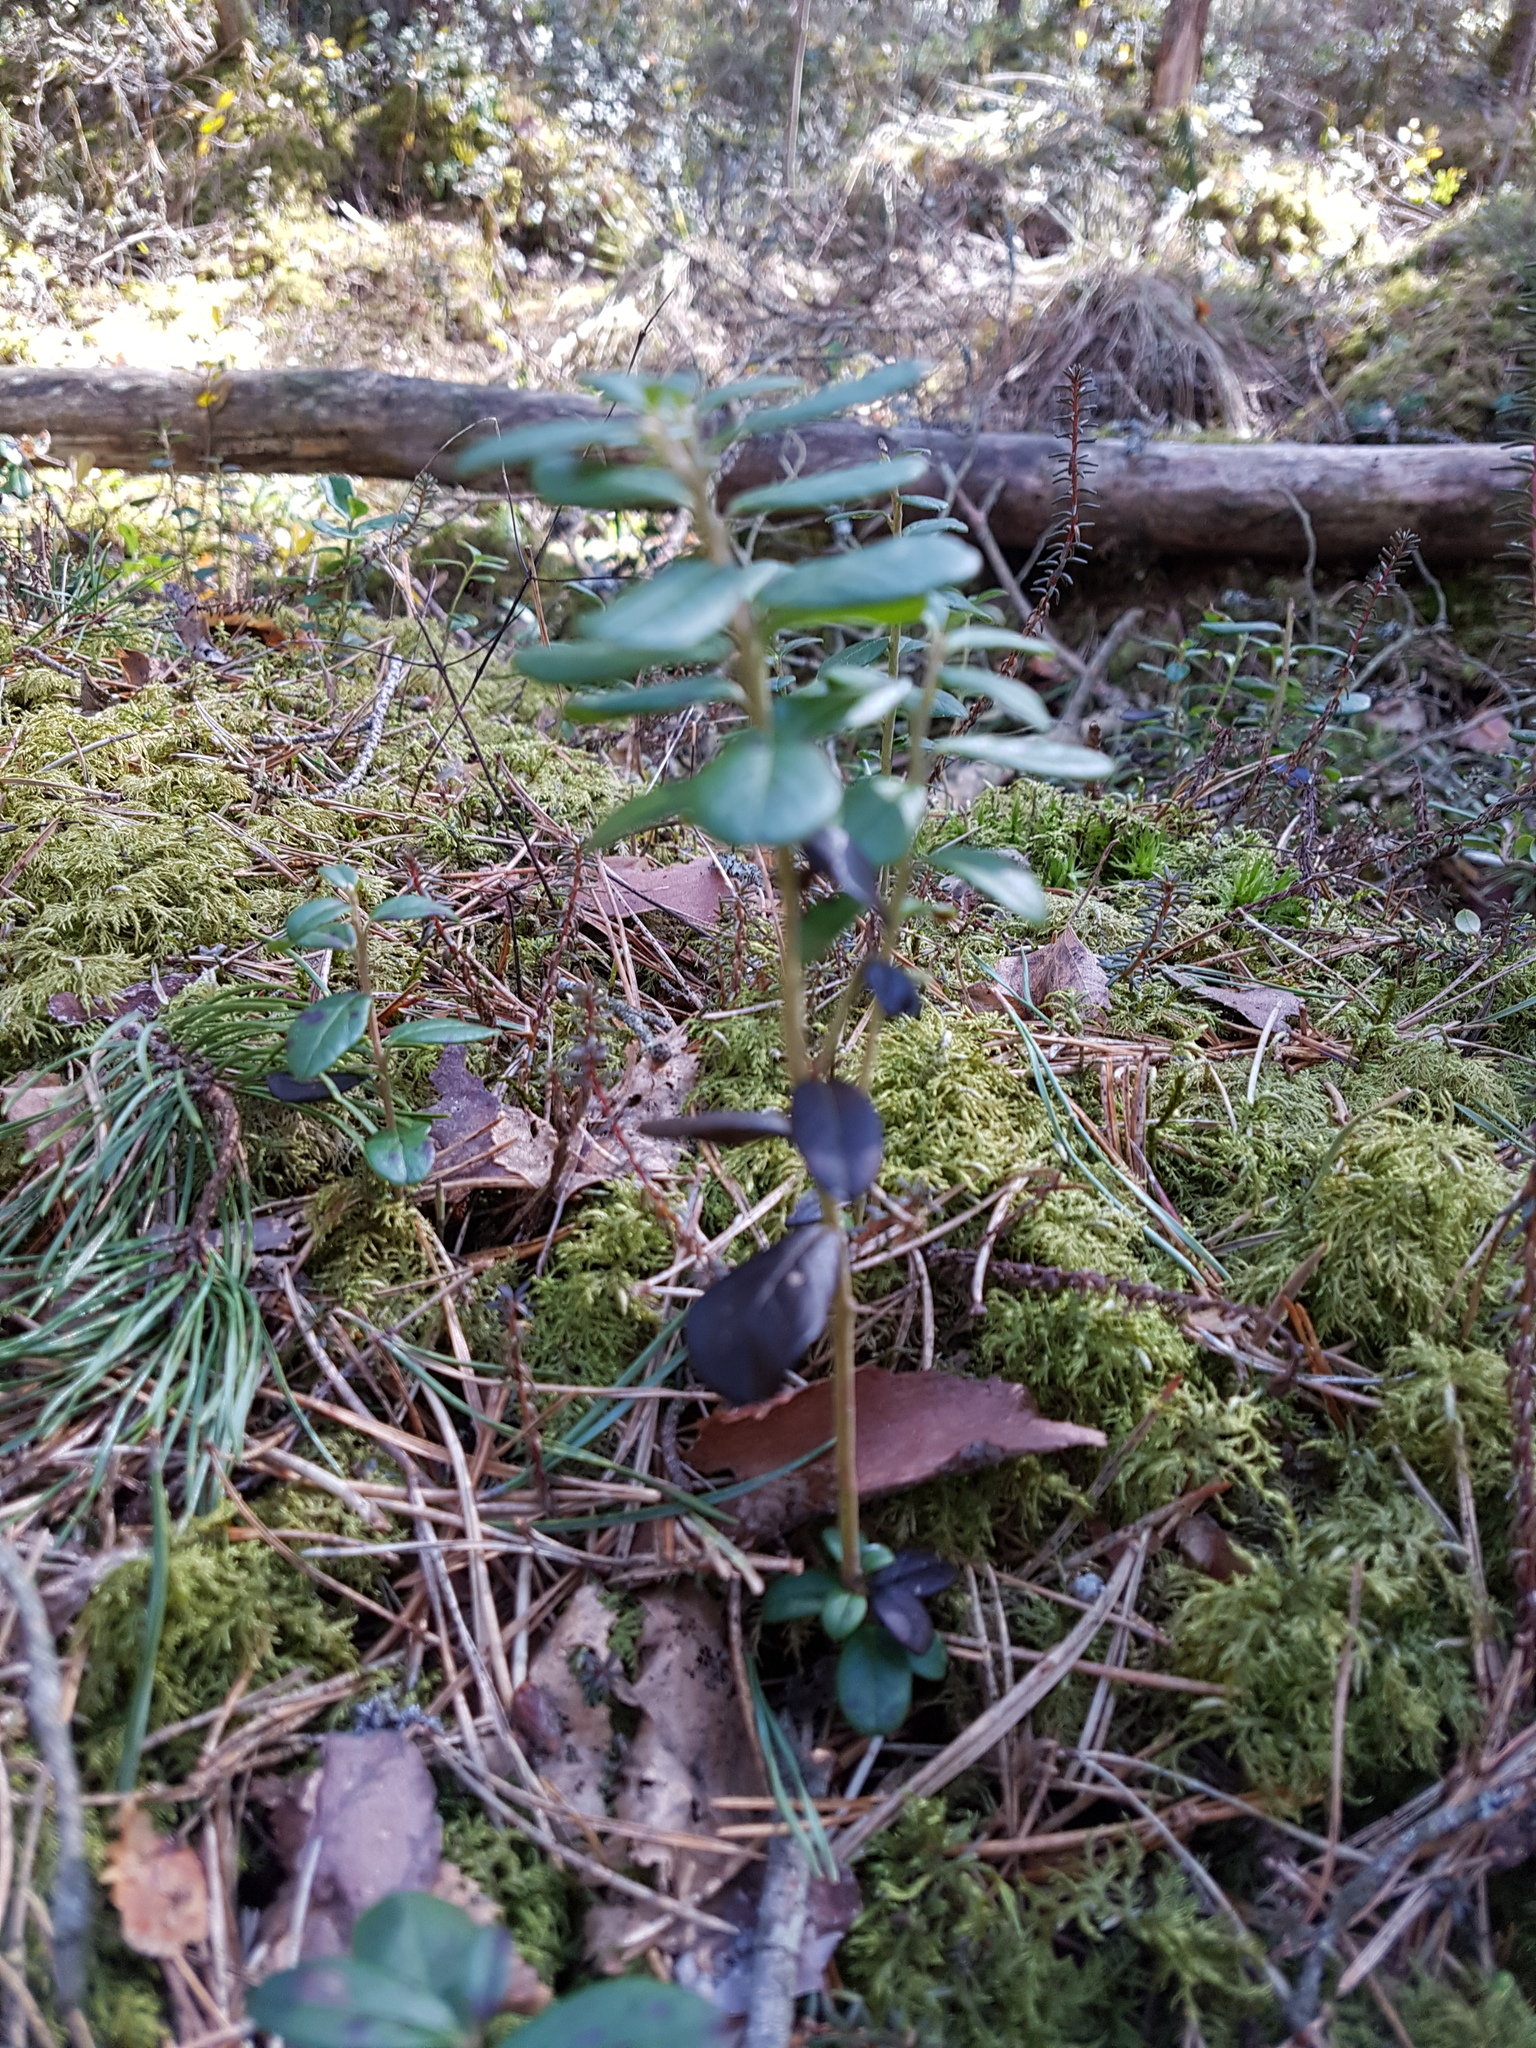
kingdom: Plantae
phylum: Tracheophyta
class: Magnoliopsida
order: Ericales
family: Ericaceae
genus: Vaccinium
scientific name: Vaccinium vitis-idaea
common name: Cowberry
